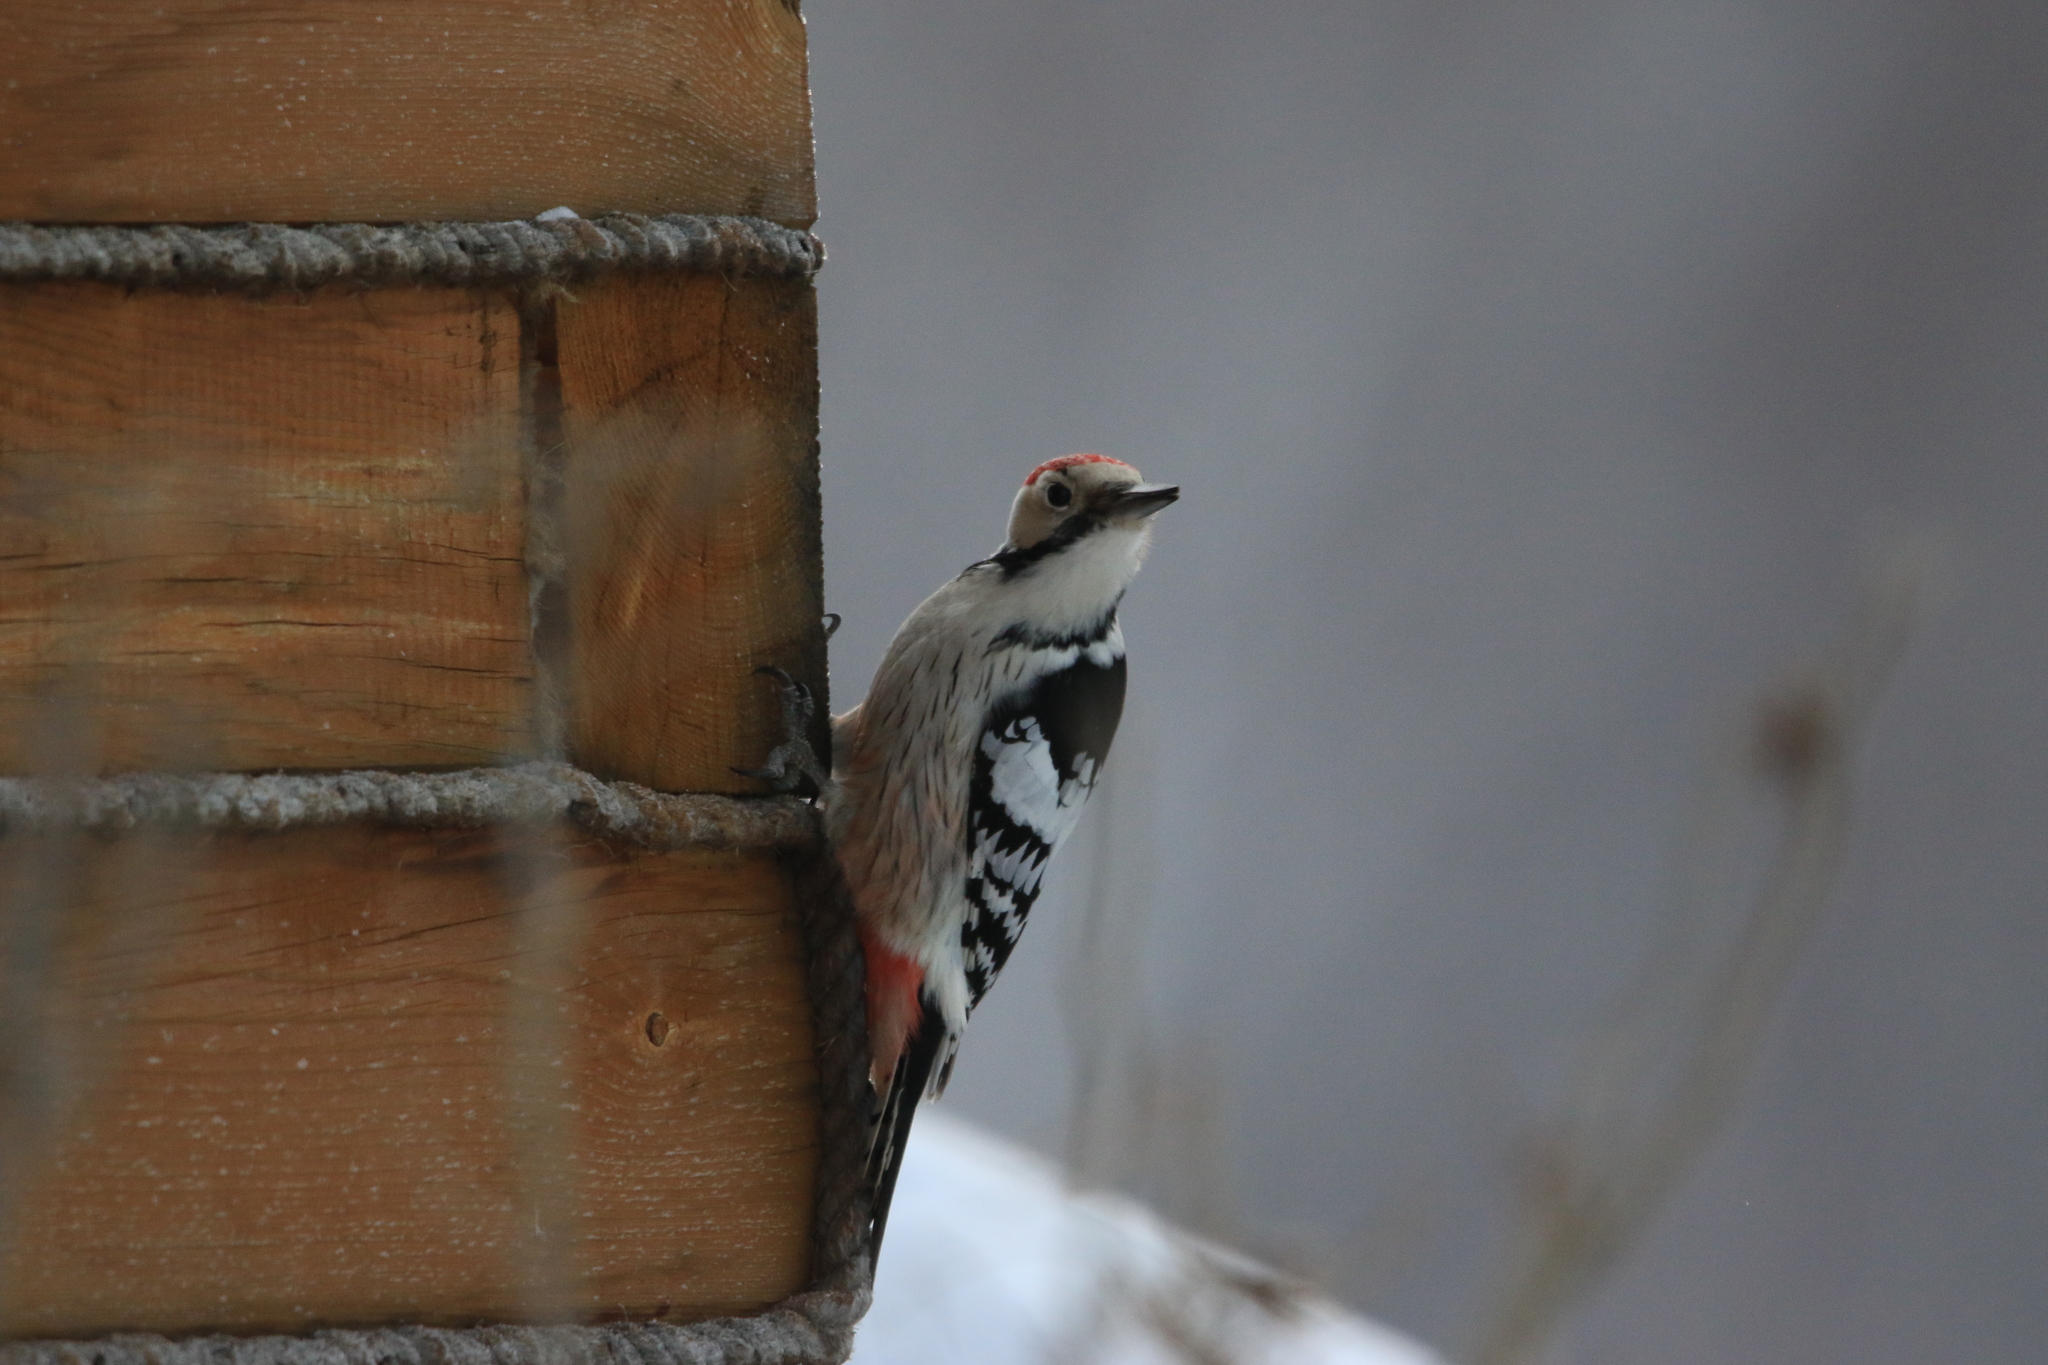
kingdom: Animalia
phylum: Chordata
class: Aves
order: Piciformes
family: Picidae
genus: Dendrocopos
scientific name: Dendrocopos leucotos
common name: White-backed woodpecker
